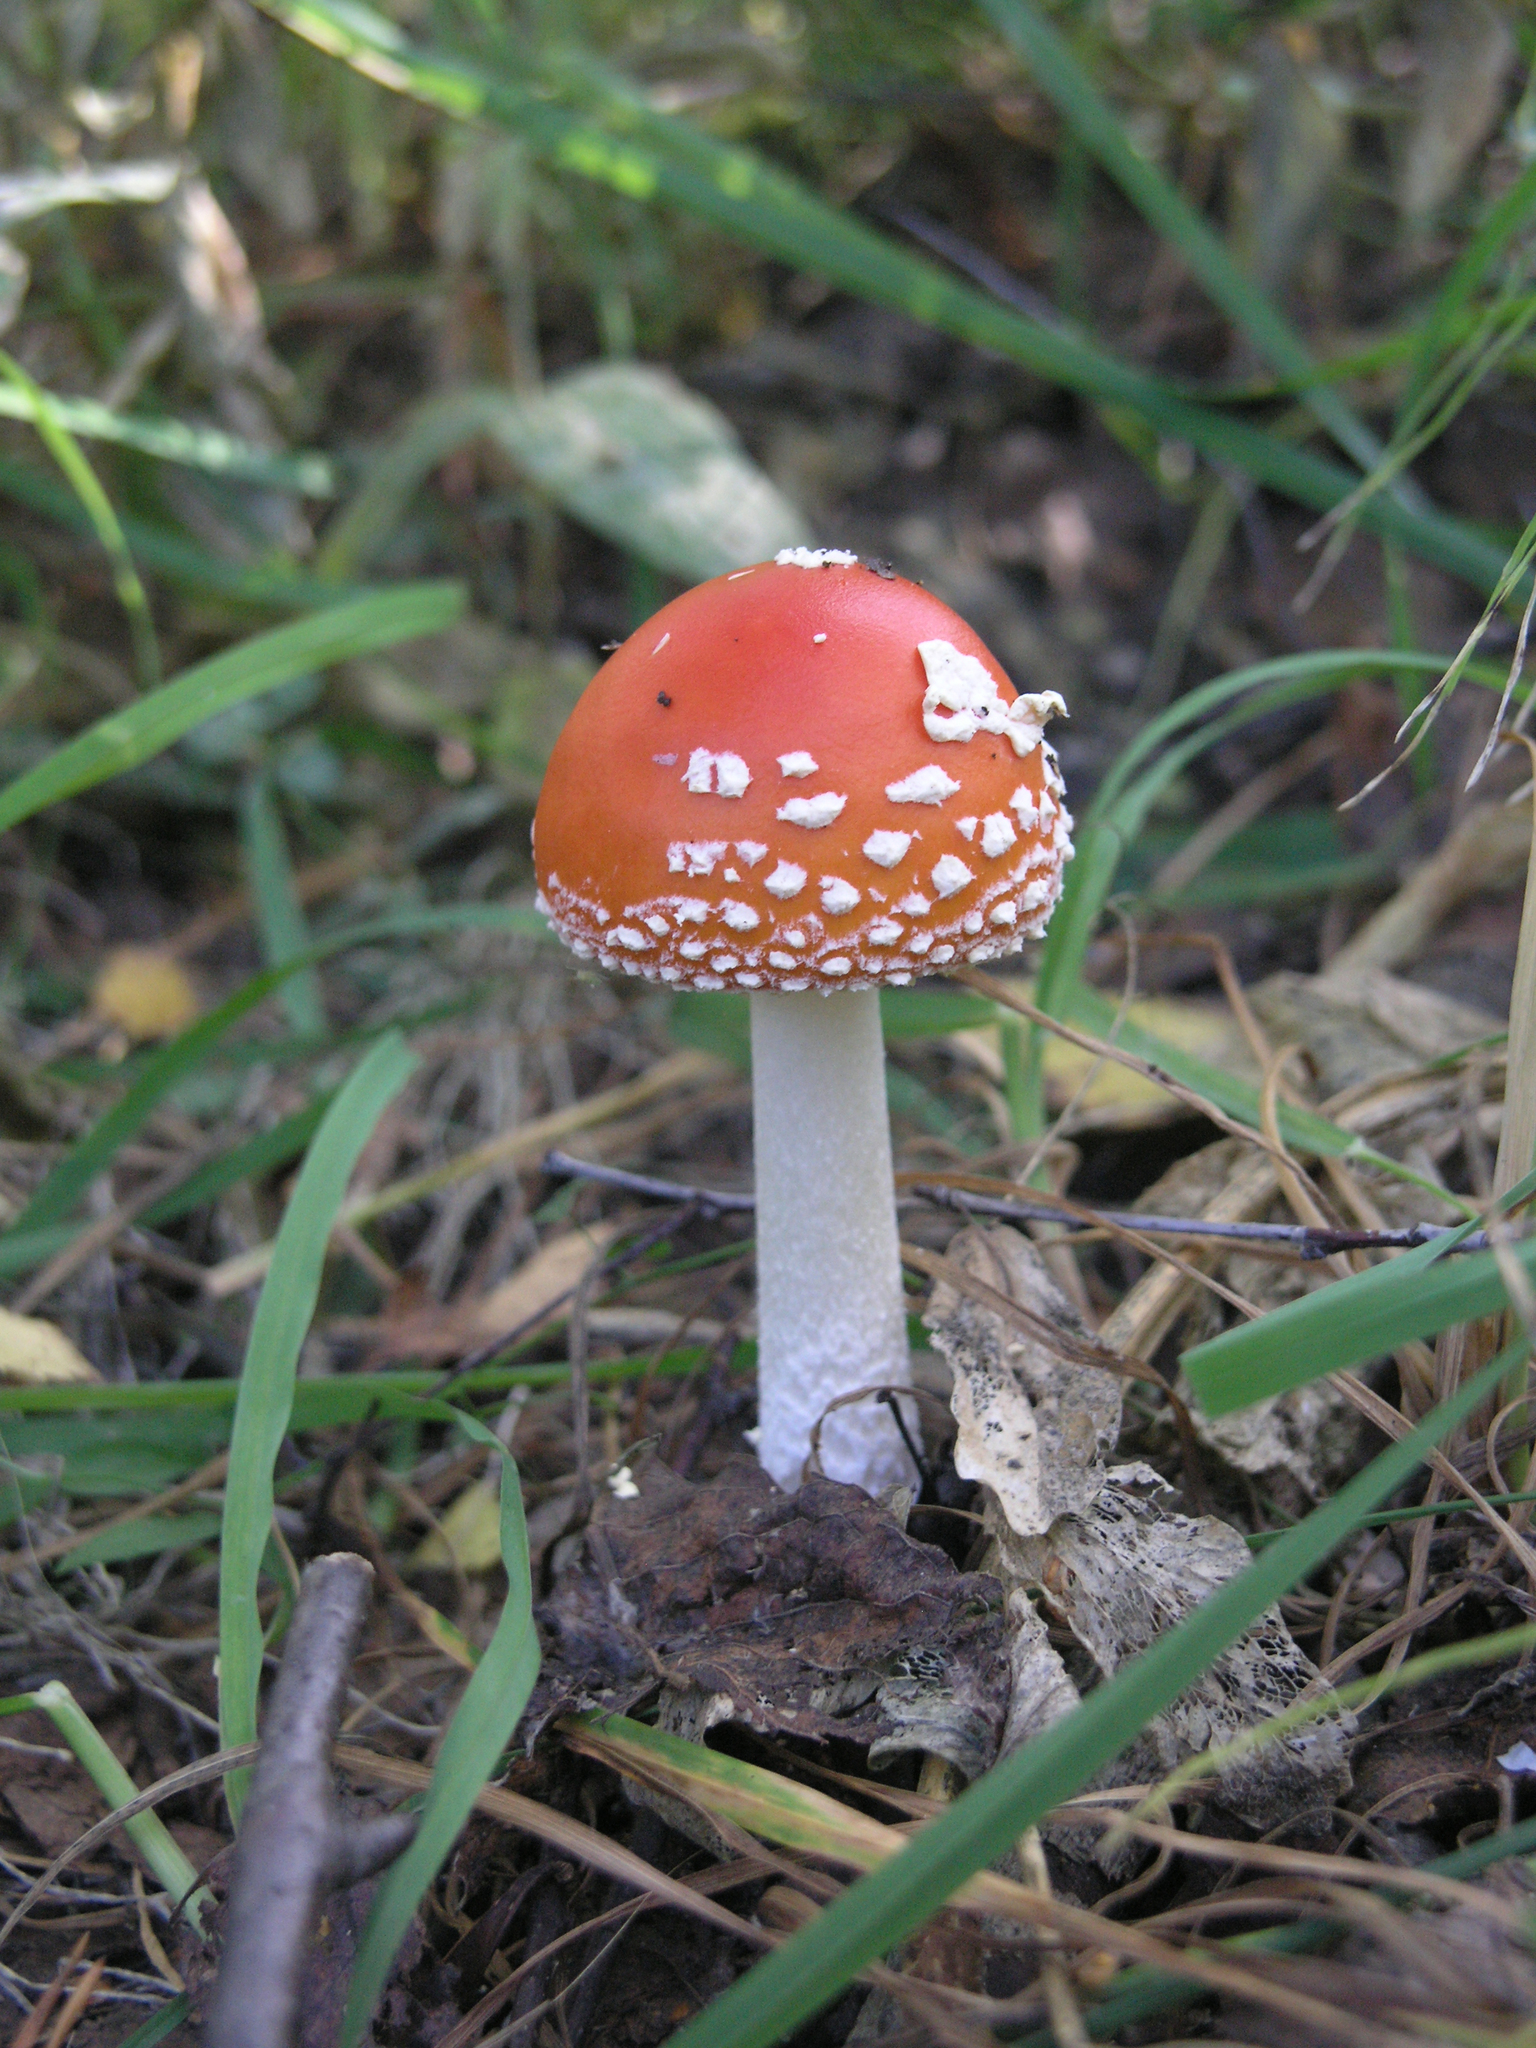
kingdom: Fungi
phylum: Basidiomycota
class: Agaricomycetes
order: Agaricales
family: Amanitaceae
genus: Amanita
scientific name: Amanita muscaria
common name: Fly agaric
